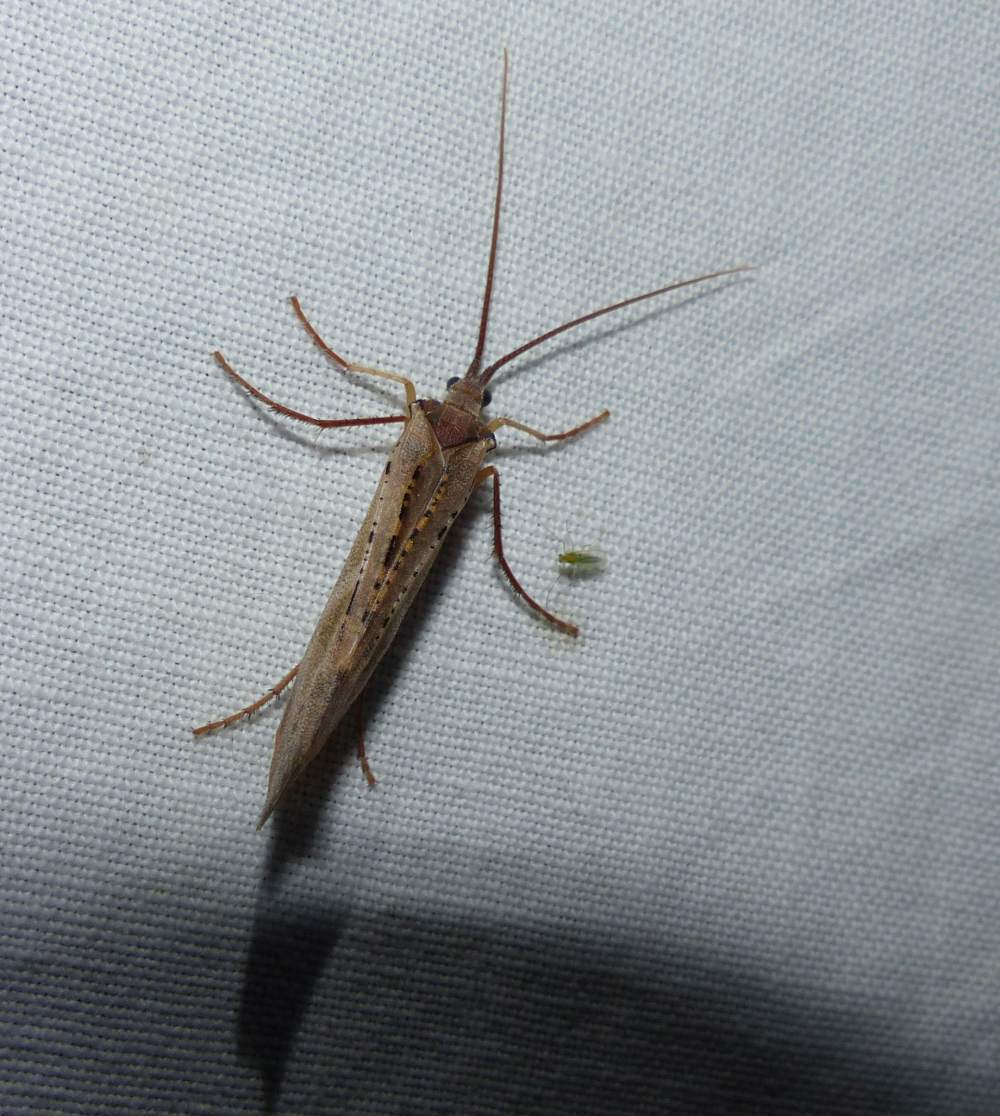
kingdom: Animalia
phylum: Arthropoda
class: Insecta
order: Trichoptera
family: Limnephilidae
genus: Nemotaulius
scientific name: Nemotaulius hostilis
